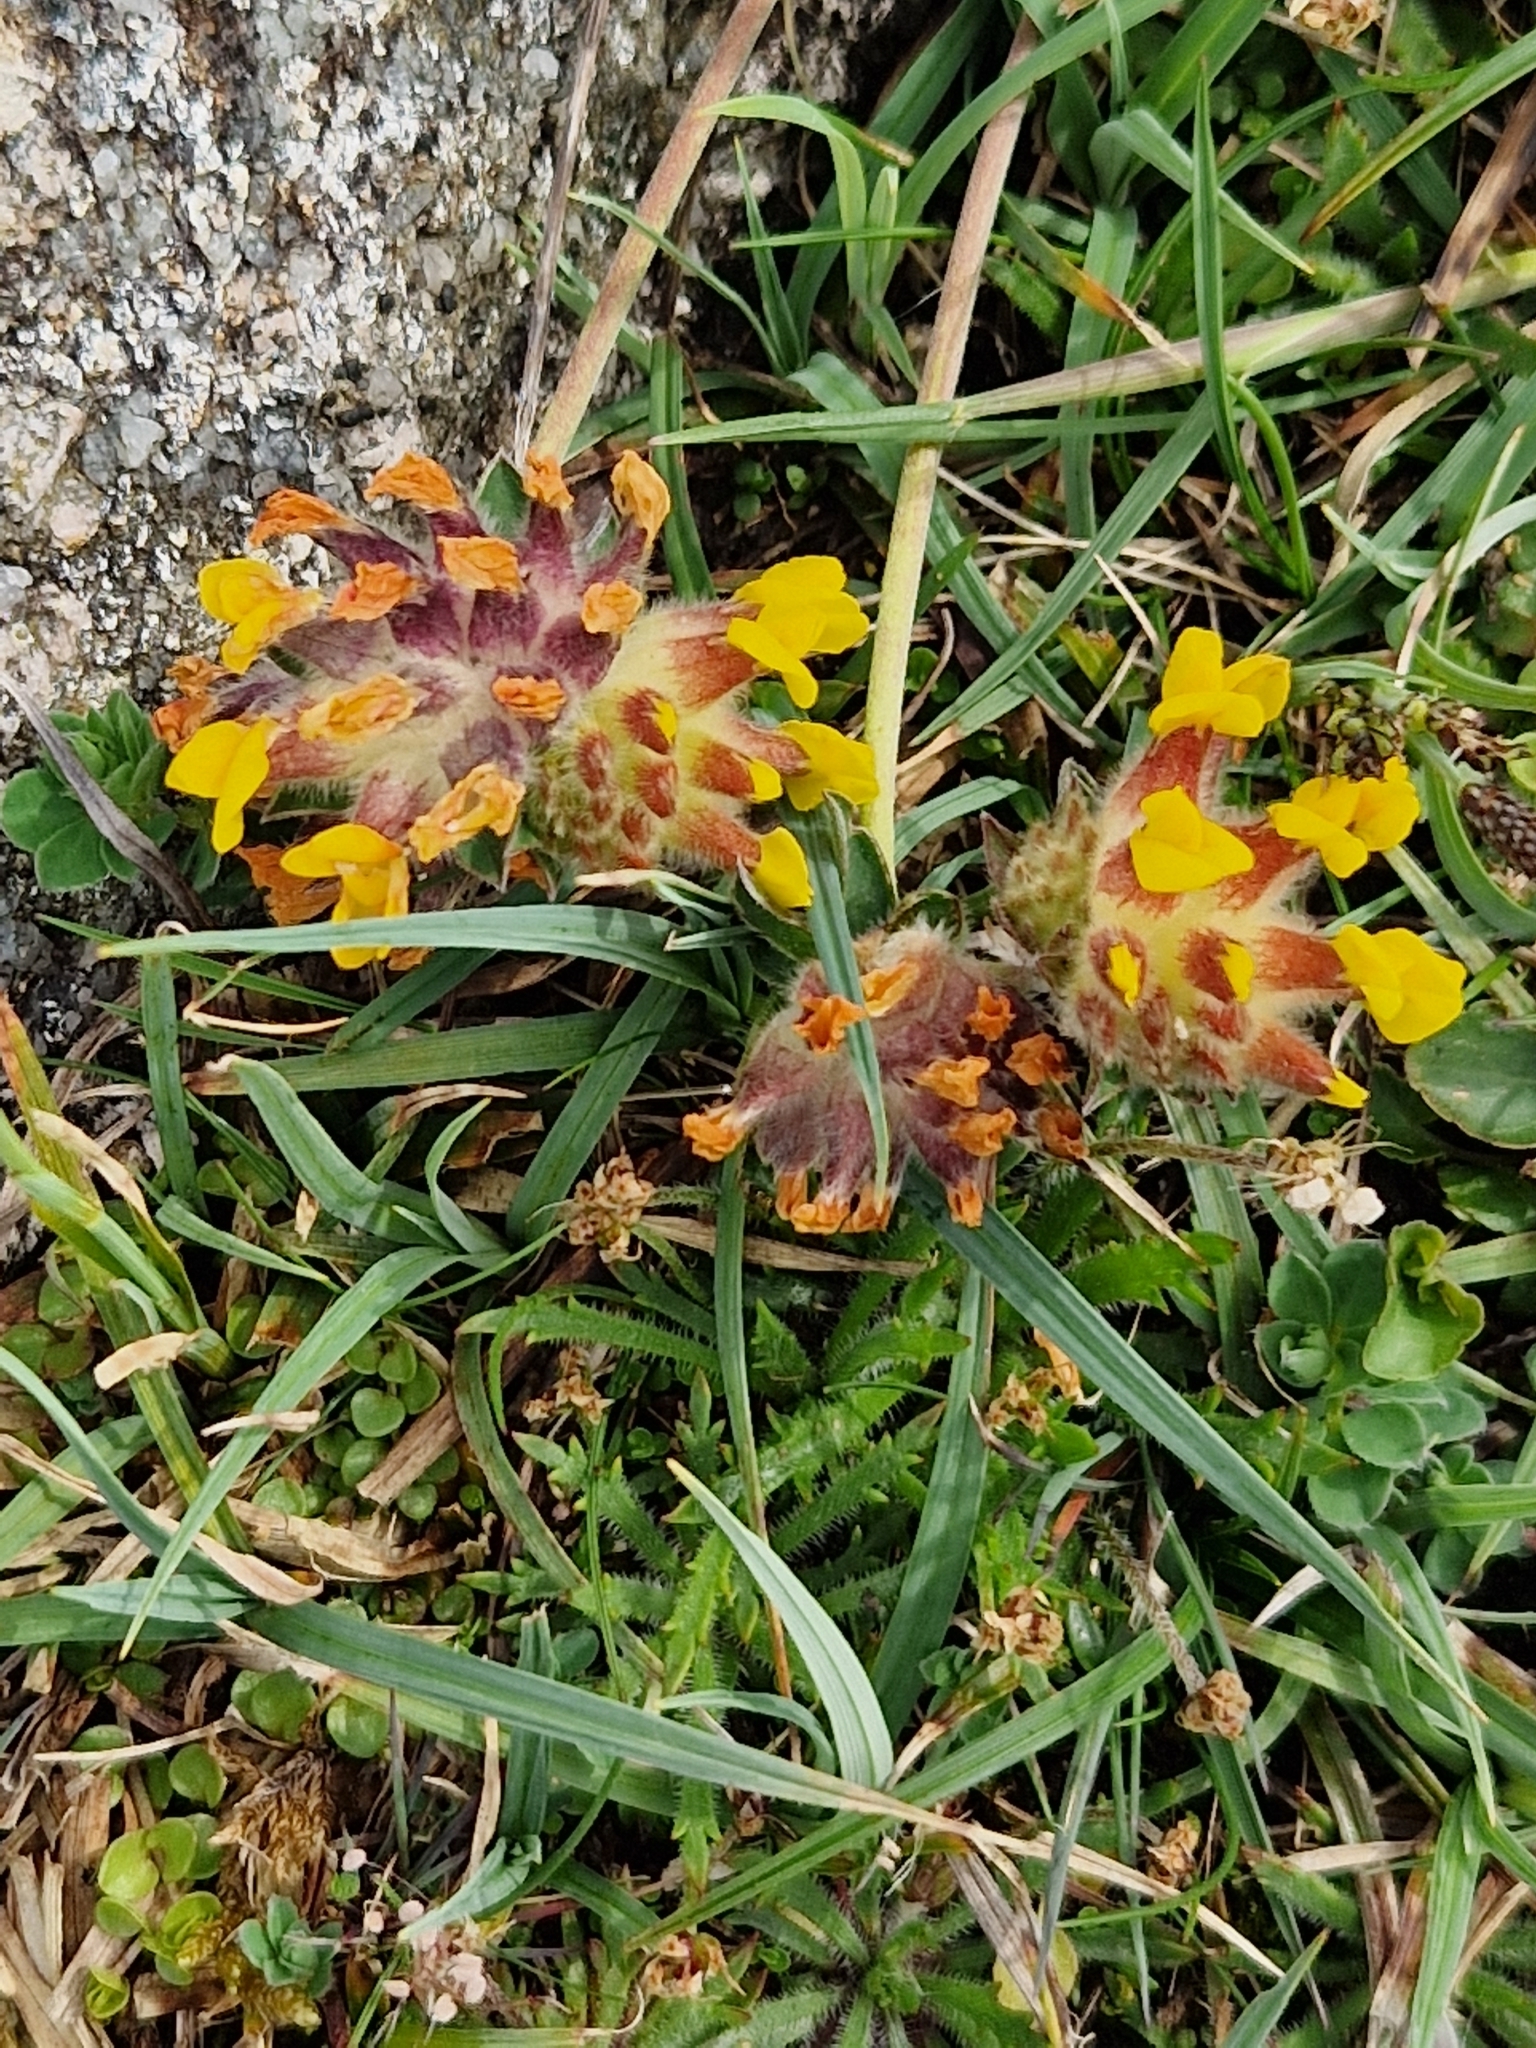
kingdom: Plantae
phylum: Tracheophyta
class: Magnoliopsida
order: Fabales
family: Fabaceae
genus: Anthyllis
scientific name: Anthyllis vulneraria
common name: Kidney vetch
